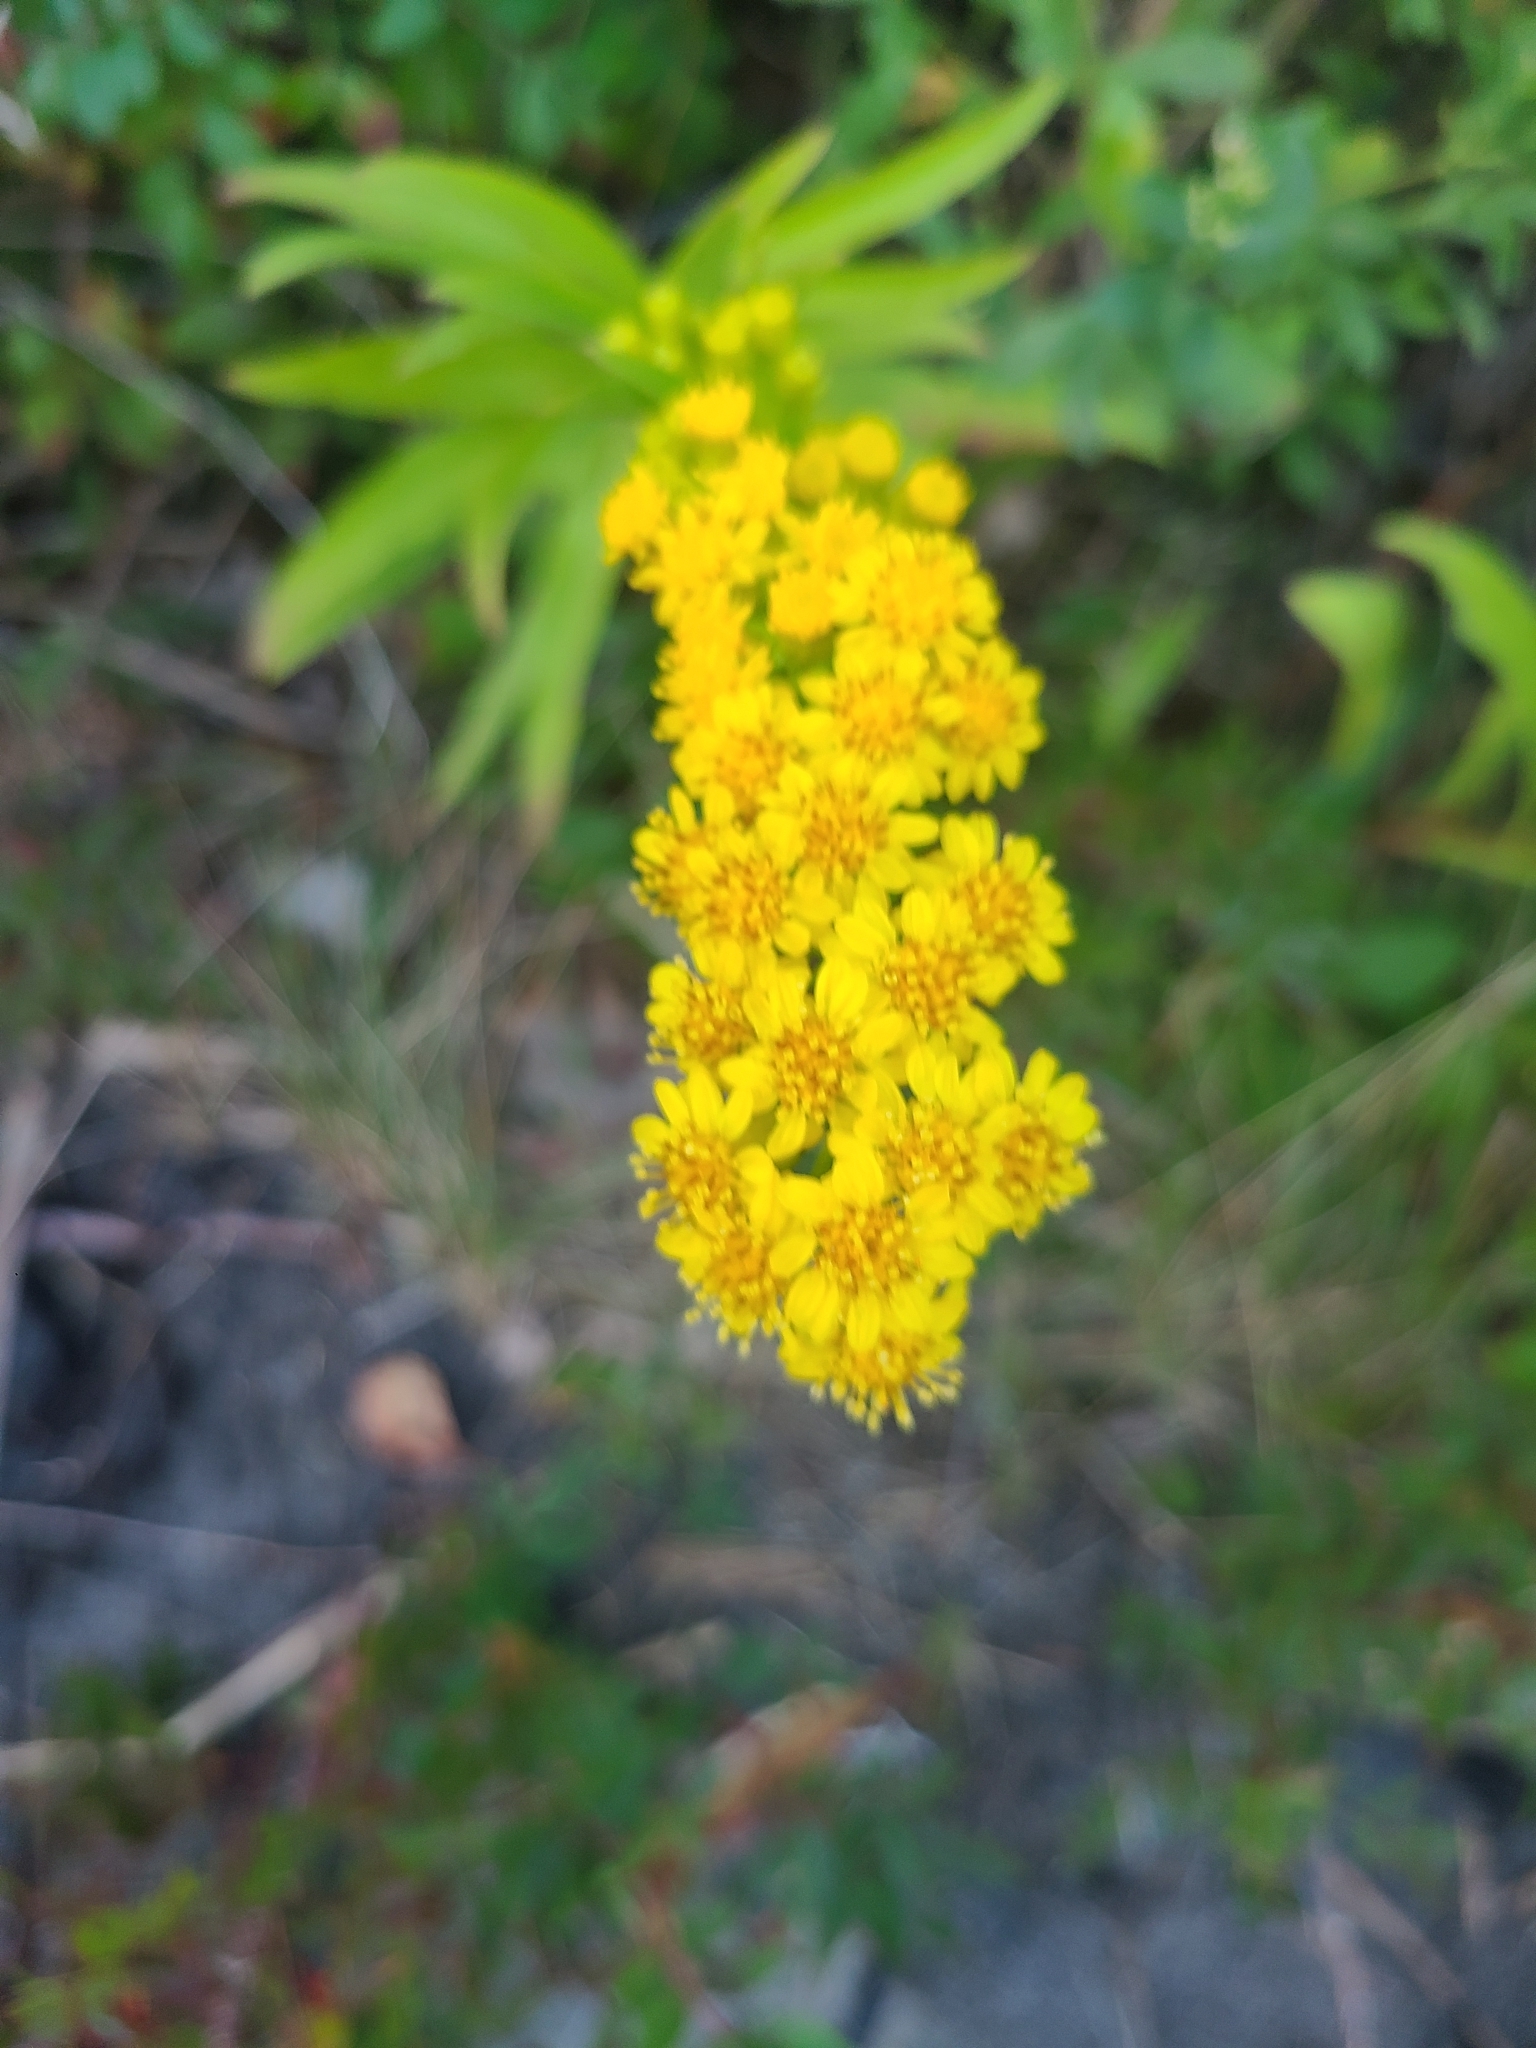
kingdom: Plantae
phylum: Tracheophyta
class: Magnoliopsida
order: Asterales
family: Asteraceae
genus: Solidago
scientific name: Solidago sempervirens
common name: Salt-marsh goldenrod
